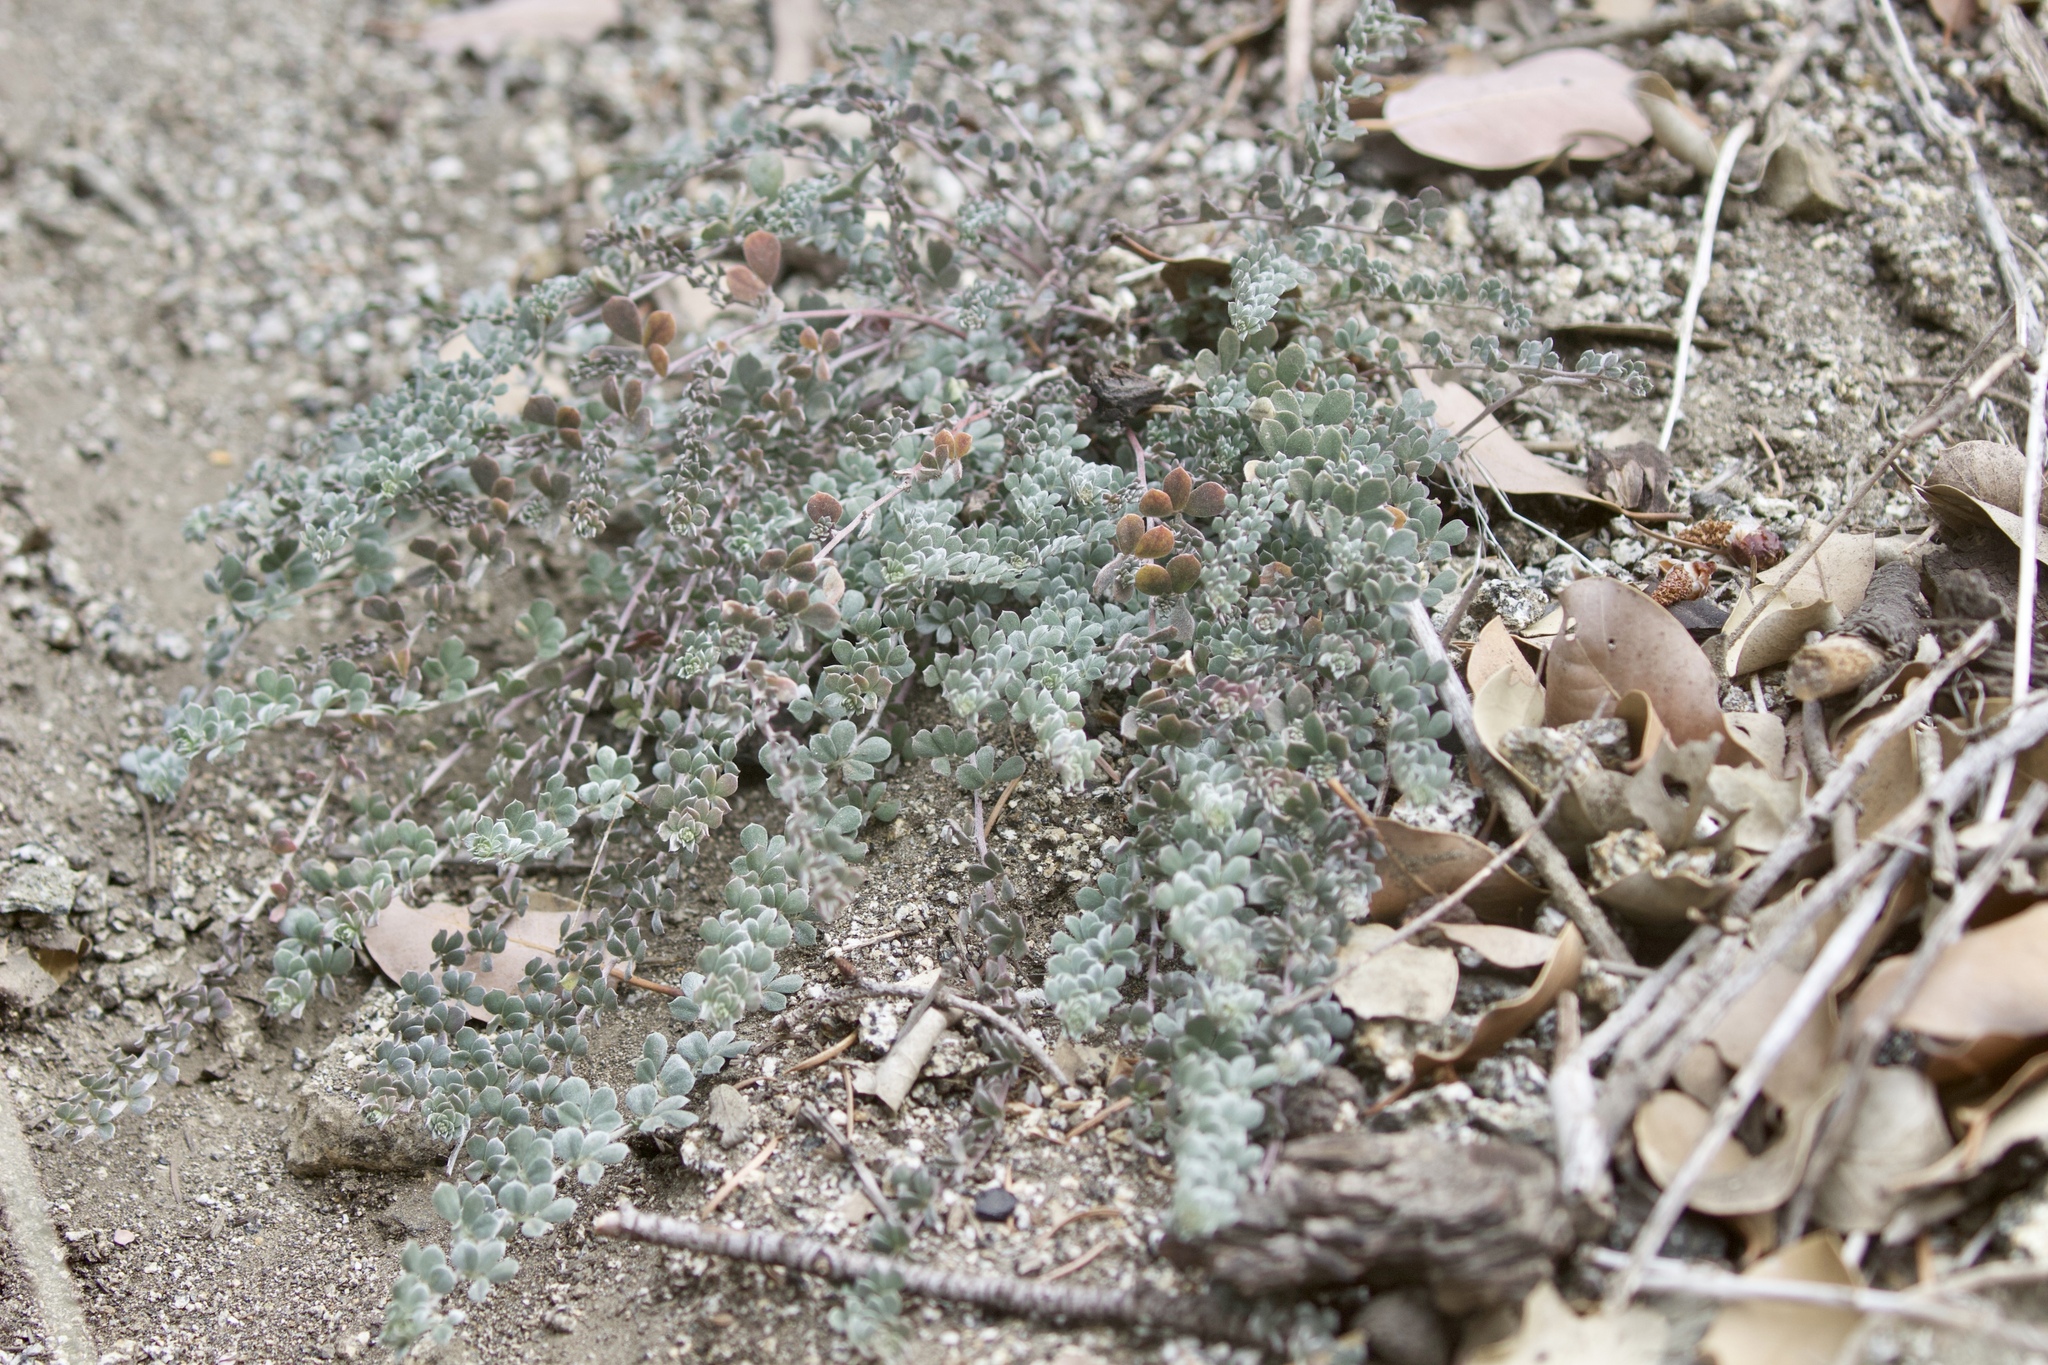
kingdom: Plantae
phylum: Tracheophyta
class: Magnoliopsida
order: Fabales
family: Fabaceae
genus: Acmispon
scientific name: Acmispon argophyllus
